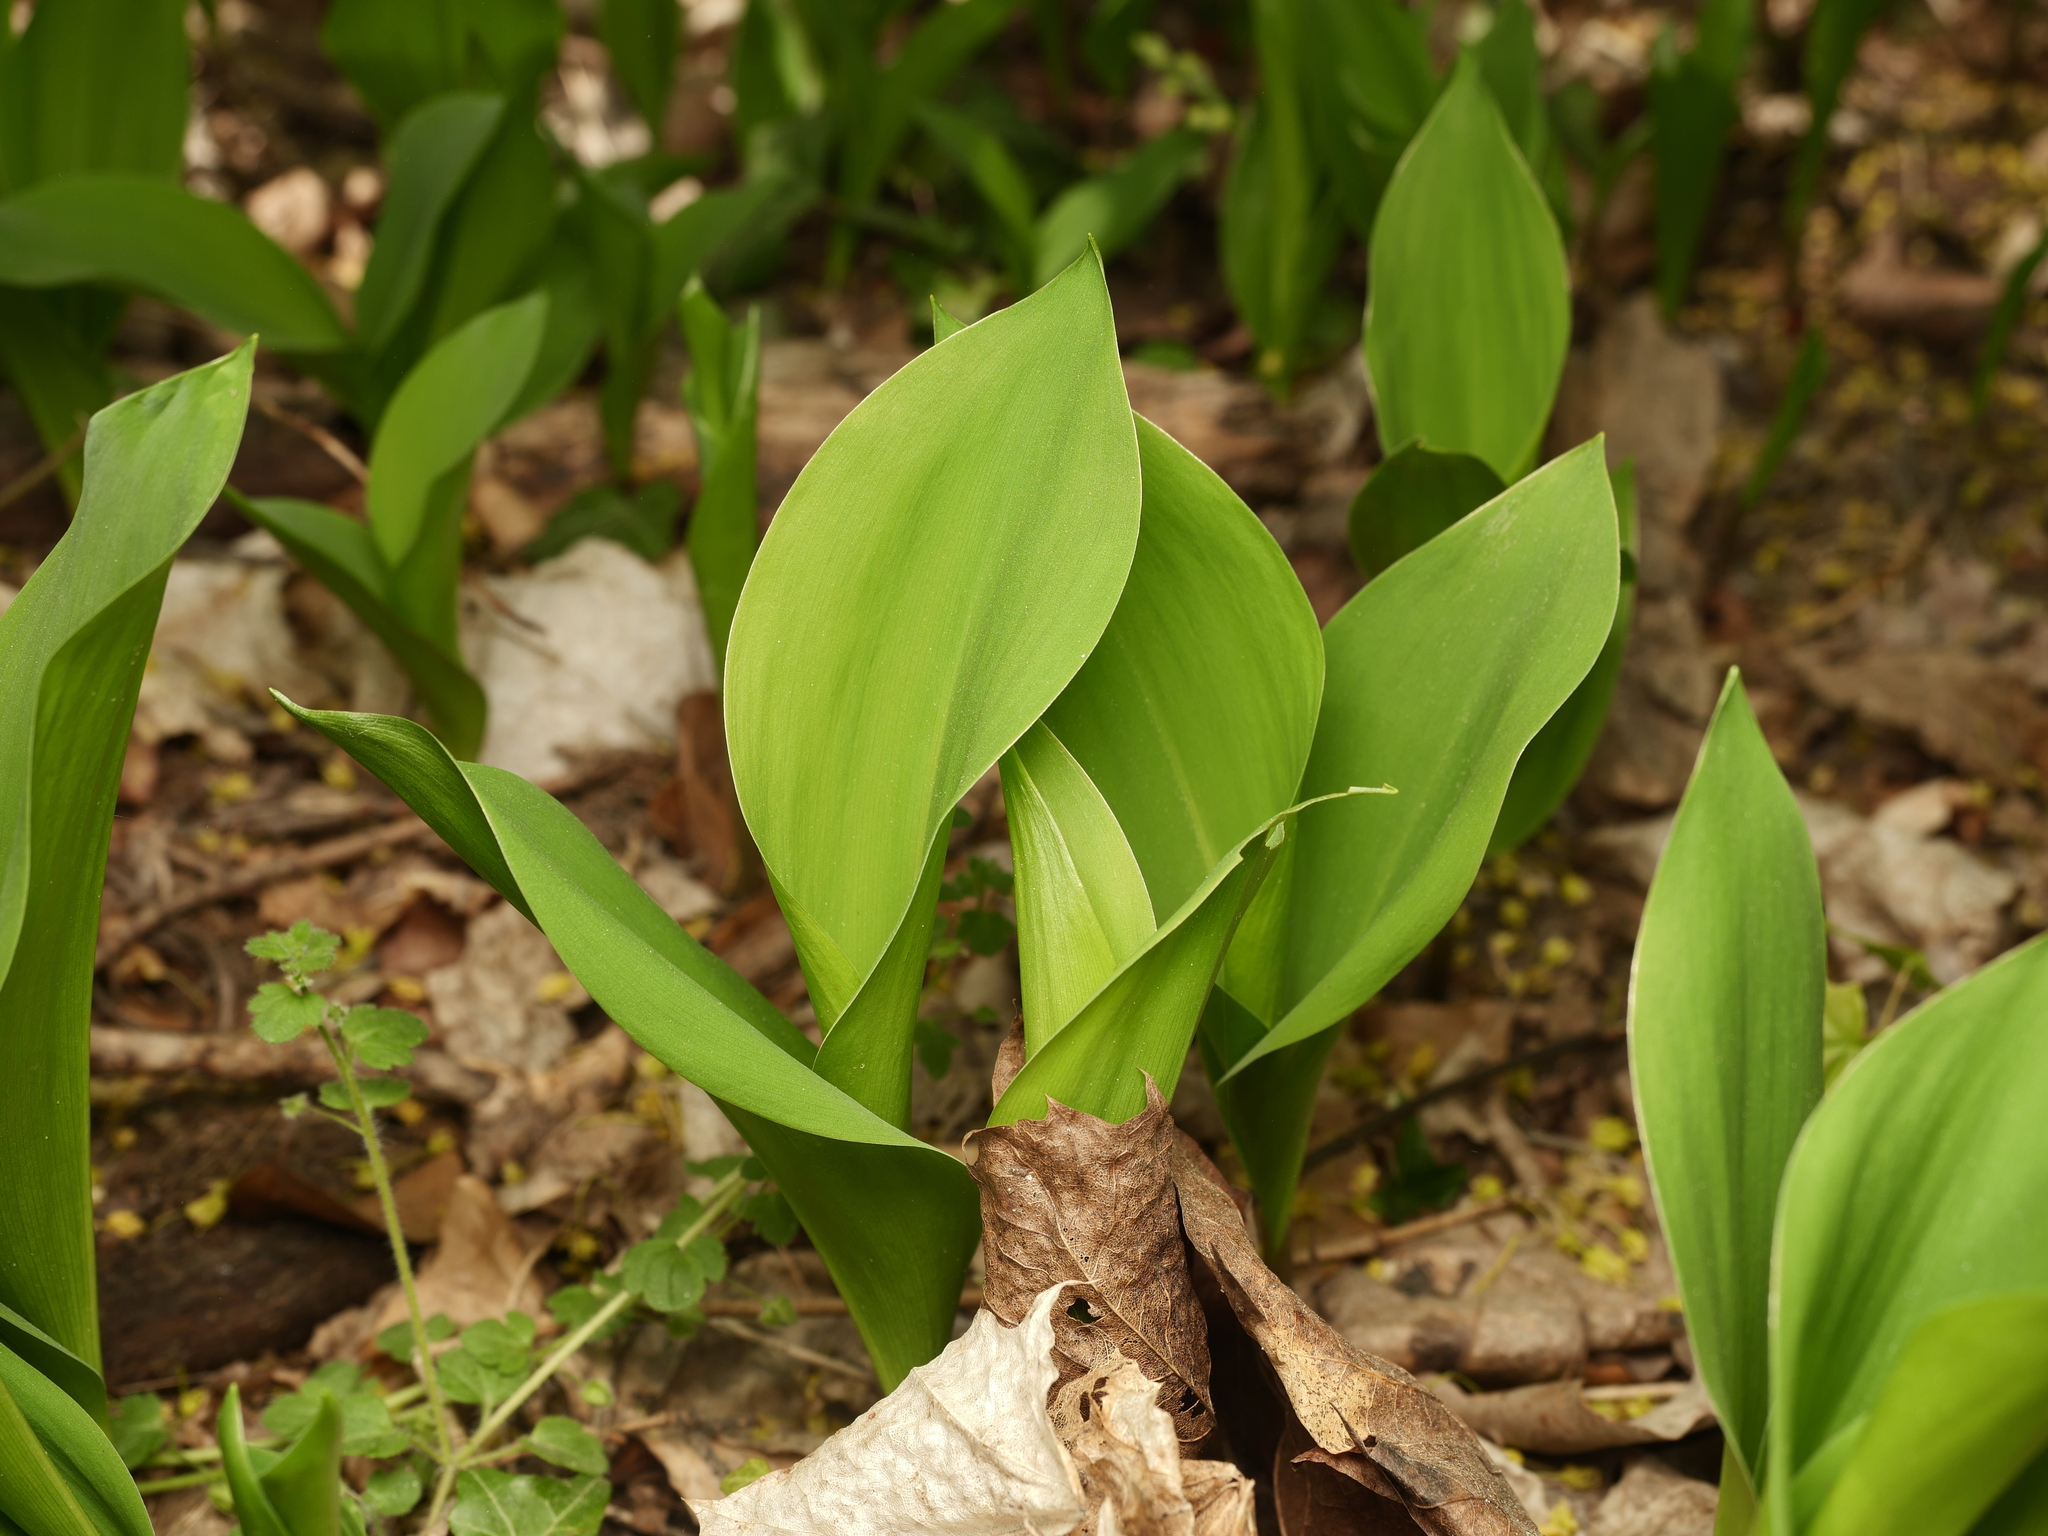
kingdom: Plantae
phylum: Tracheophyta
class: Liliopsida
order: Asparagales
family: Asparagaceae
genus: Convallaria
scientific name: Convallaria majalis
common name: Lily-of-the-valley
